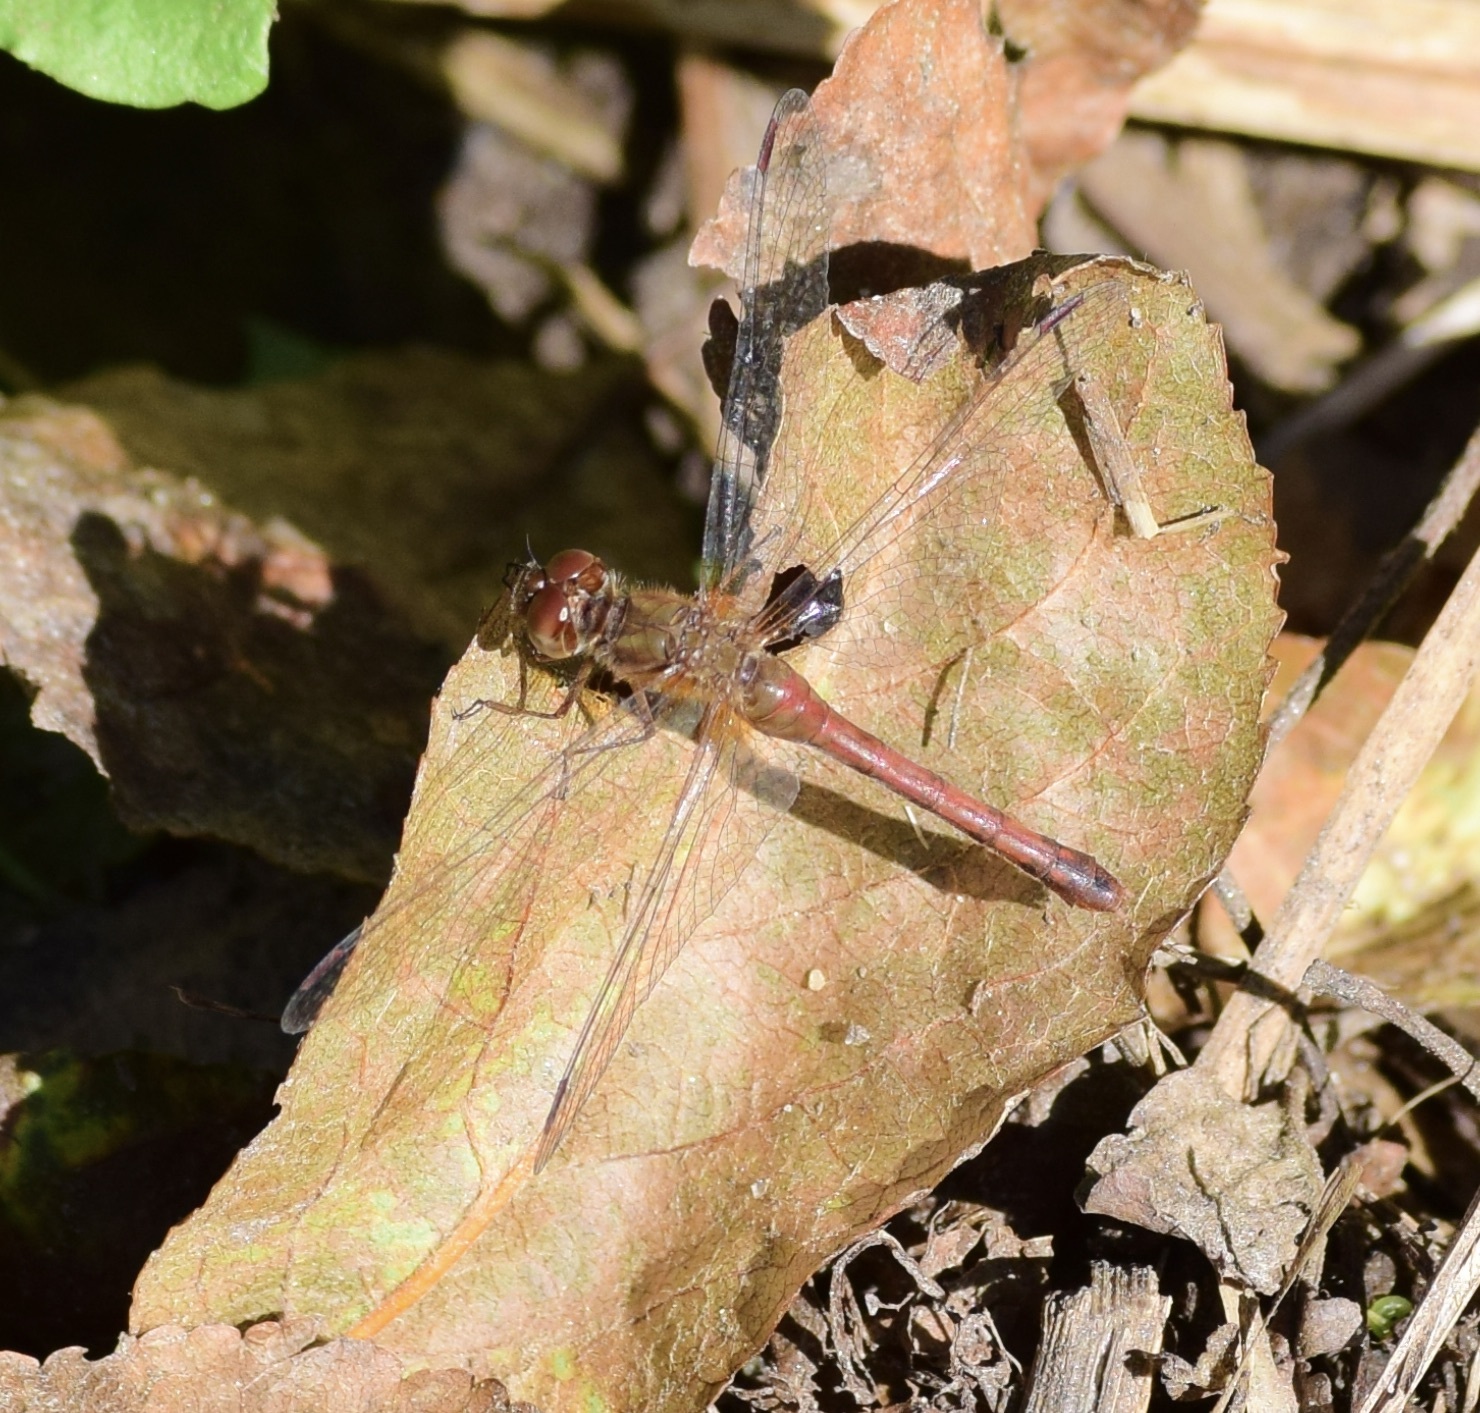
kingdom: Animalia
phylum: Arthropoda
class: Insecta
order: Odonata
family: Libellulidae
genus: Sympetrum
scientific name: Sympetrum vicinum
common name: Autumn meadowhawk
